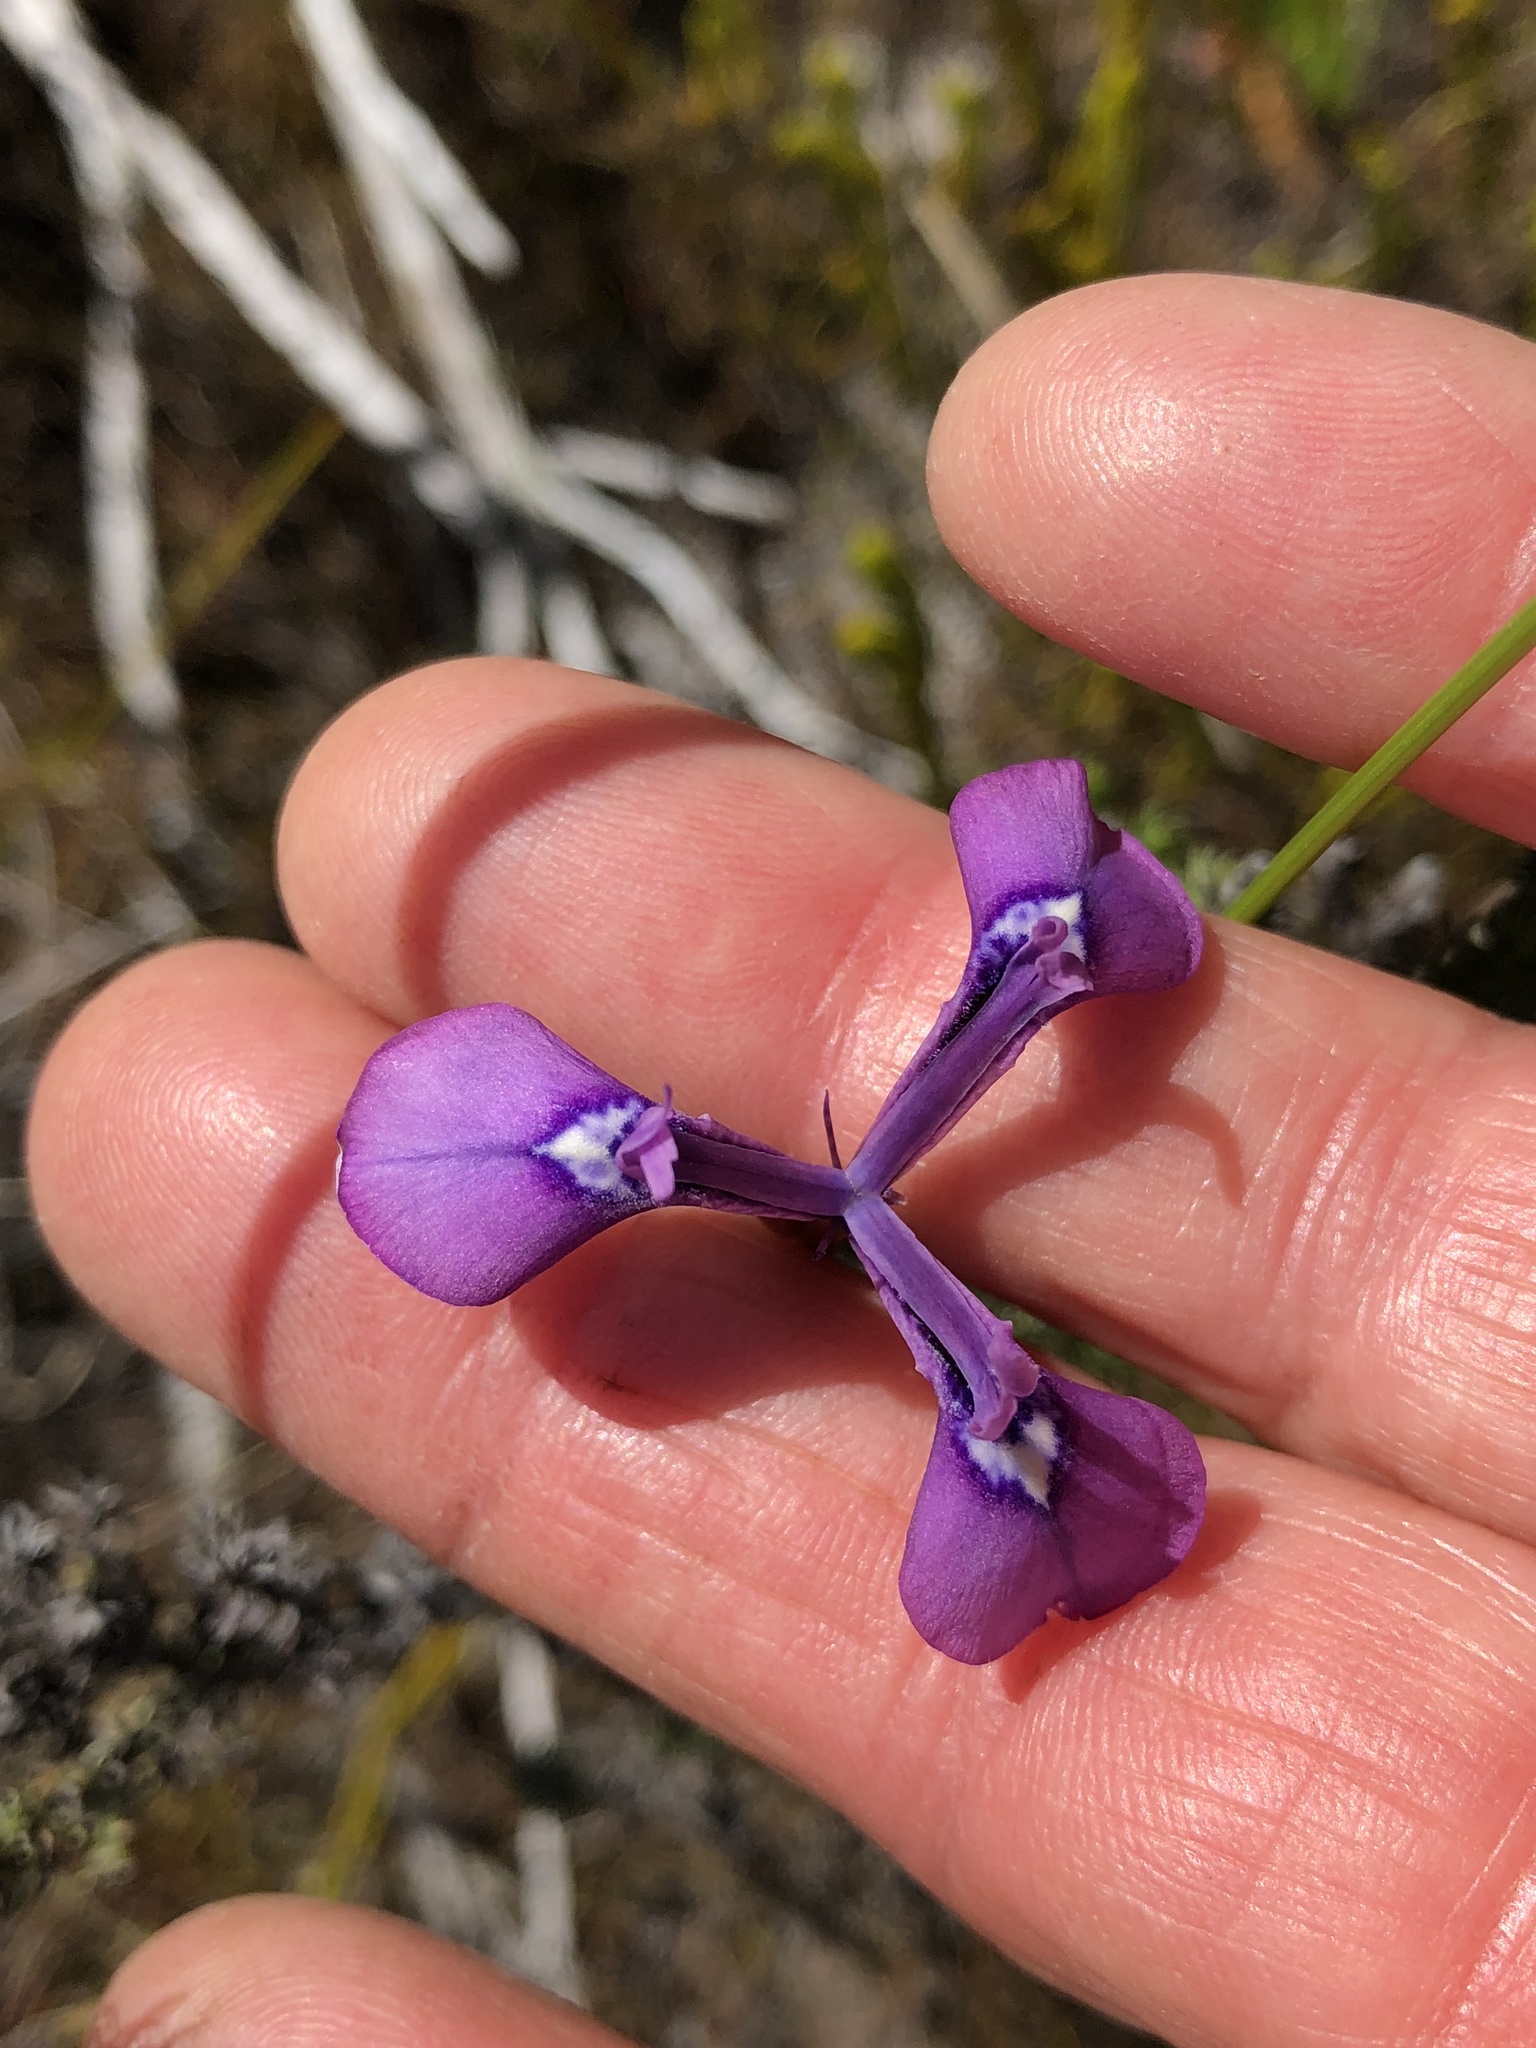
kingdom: Plantae
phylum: Tracheophyta
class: Liliopsida
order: Asparagales
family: Iridaceae
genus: Moraea
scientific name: Moraea tripetala
